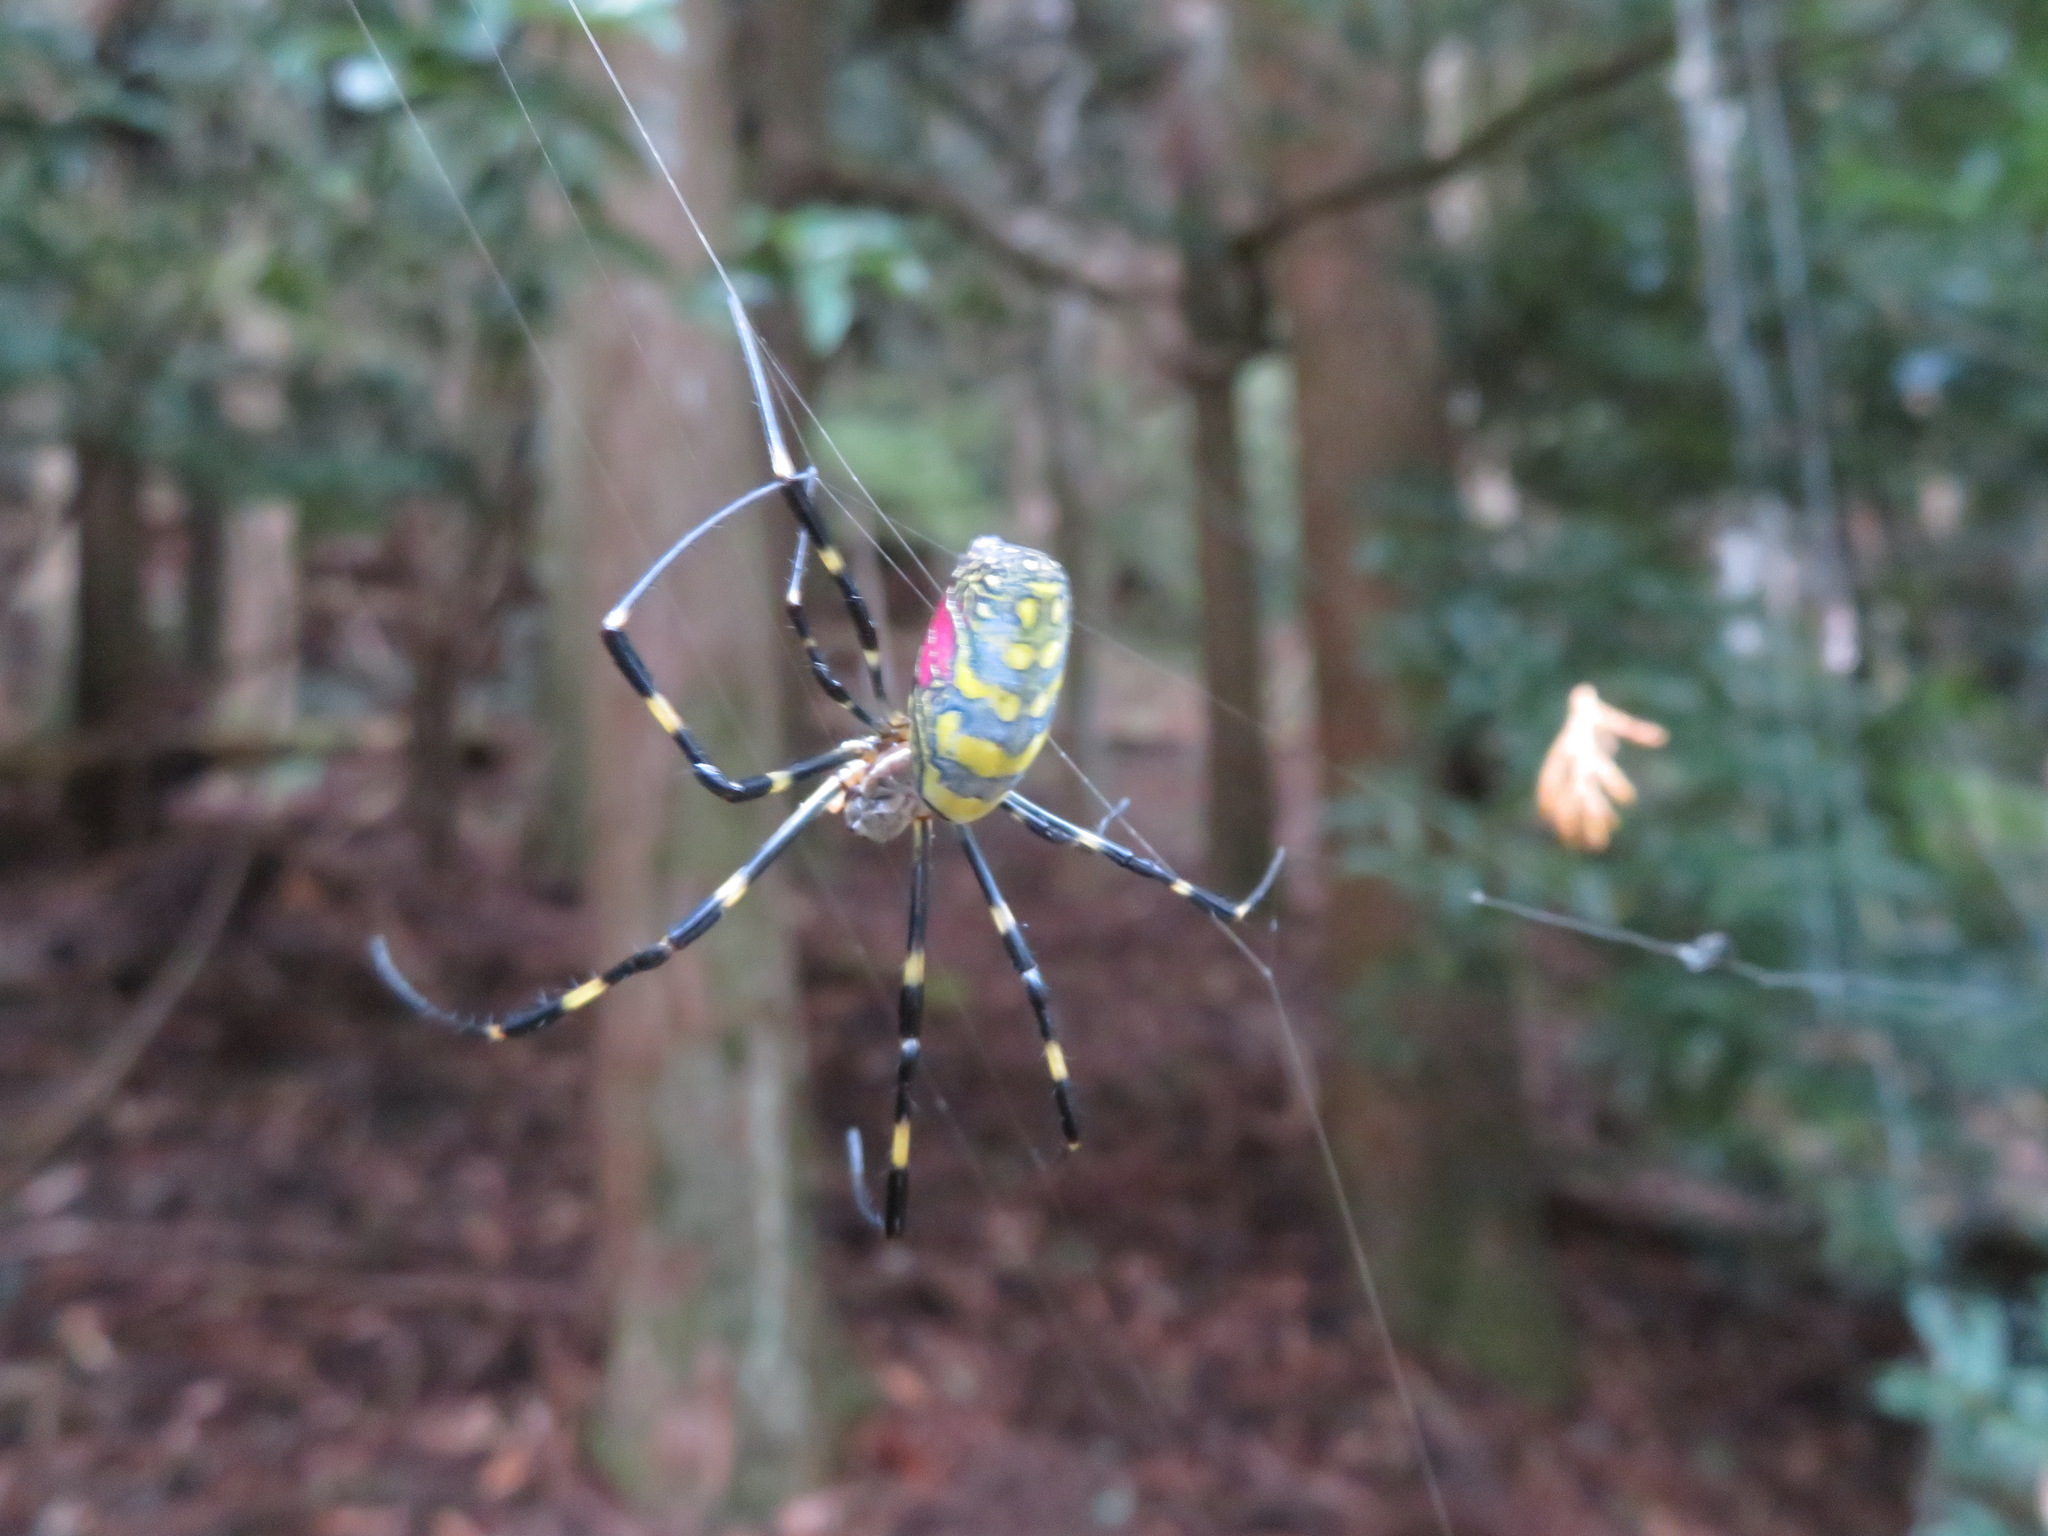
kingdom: Animalia
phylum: Arthropoda
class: Arachnida
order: Araneae
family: Araneidae
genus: Trichonephila
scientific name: Trichonephila clavata
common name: Jorō spider
